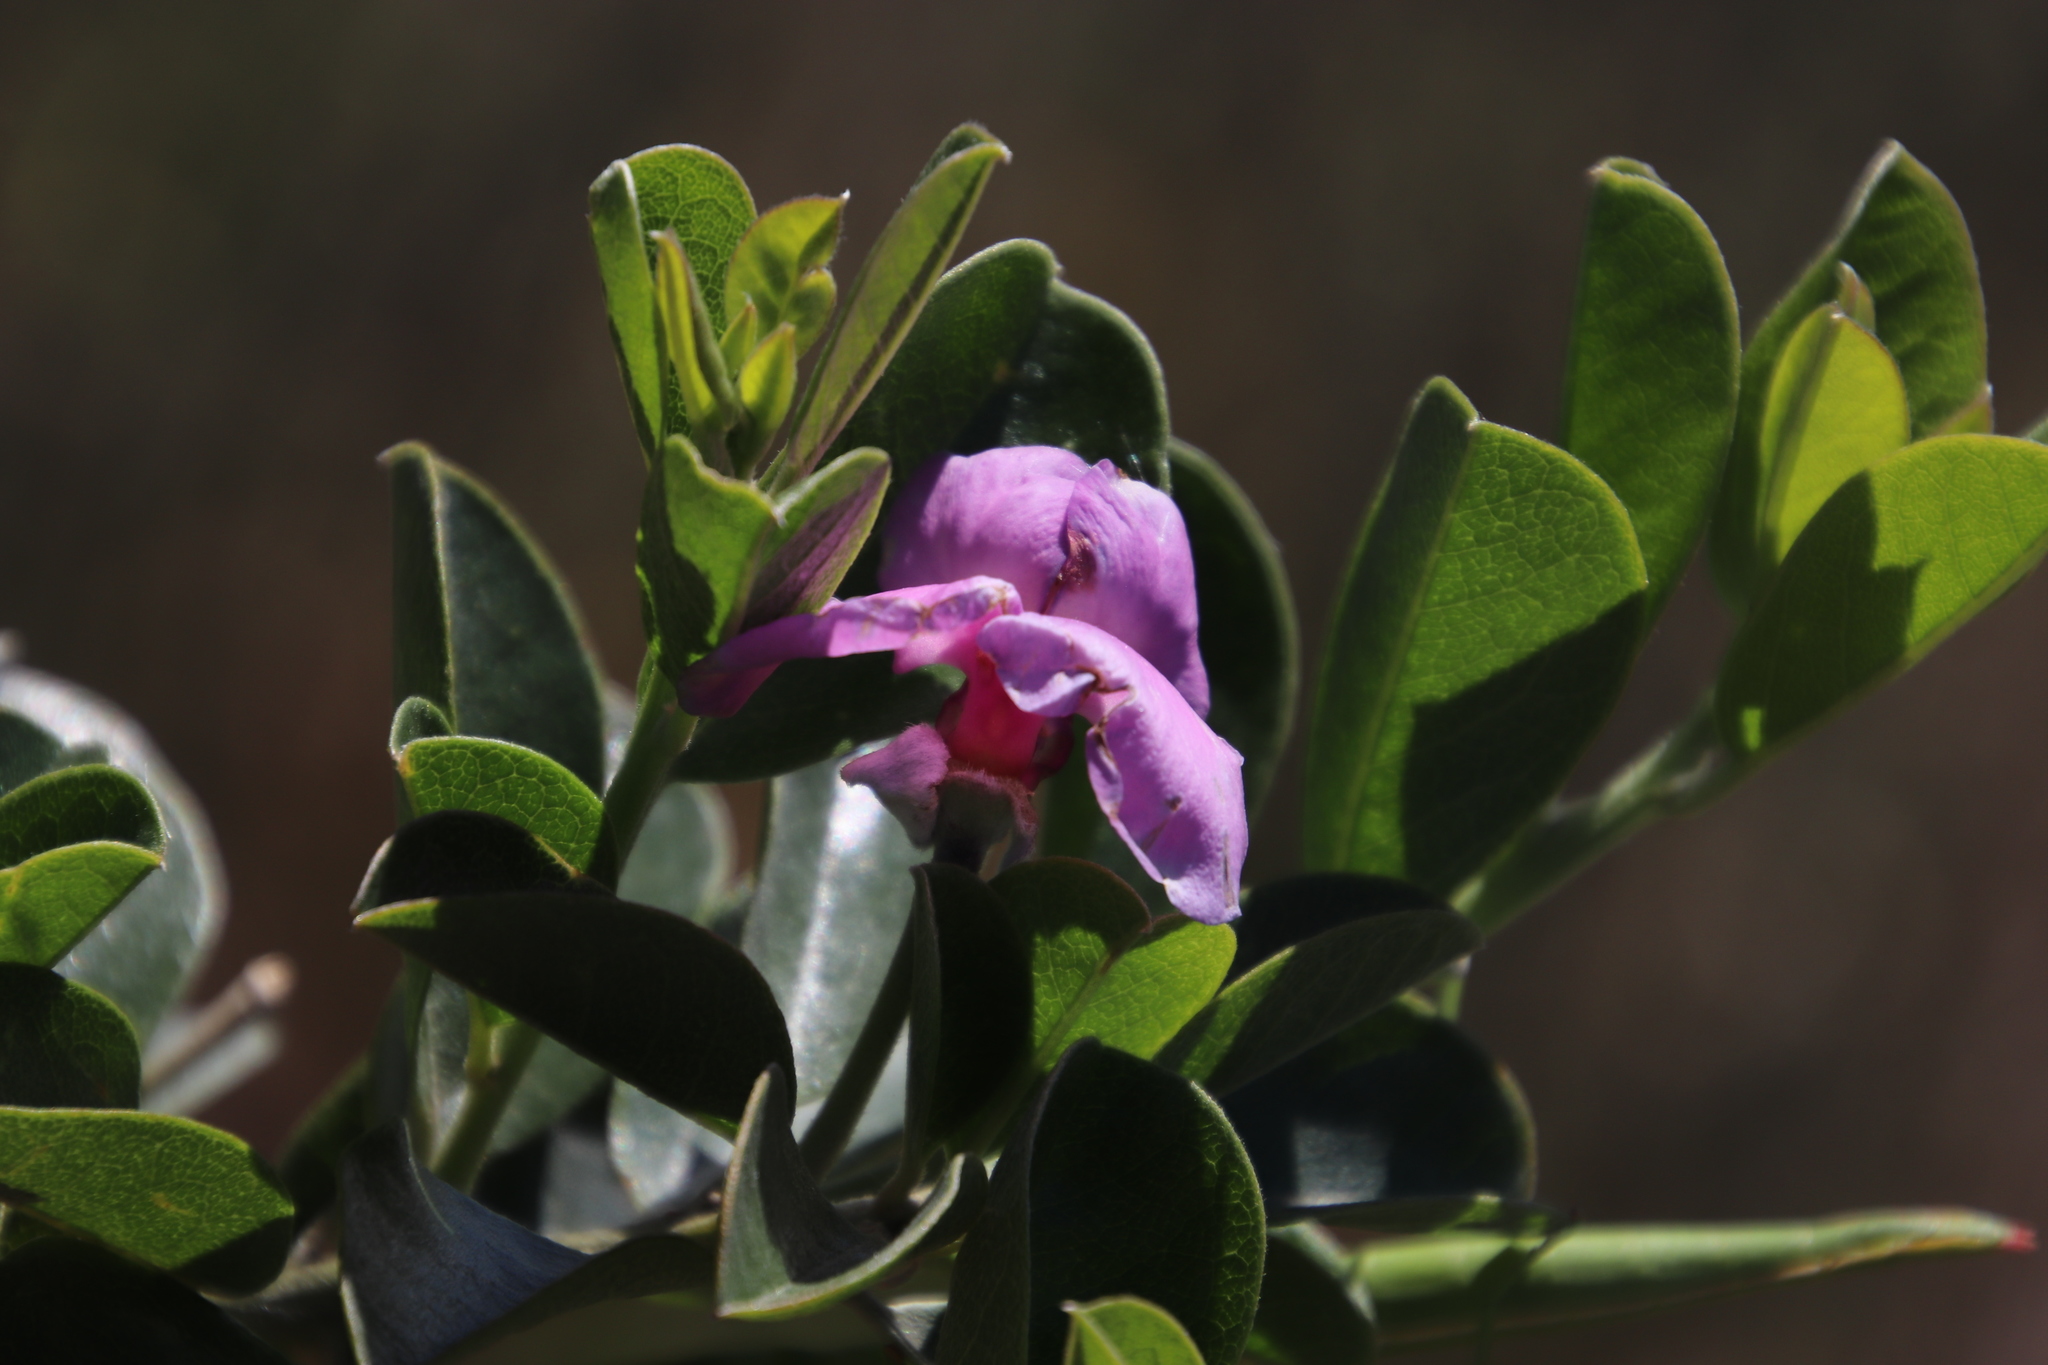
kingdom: Plantae
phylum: Tracheophyta
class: Magnoliopsida
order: Fabales
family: Fabaceae
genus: Podalyria
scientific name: Podalyria calyptrata
